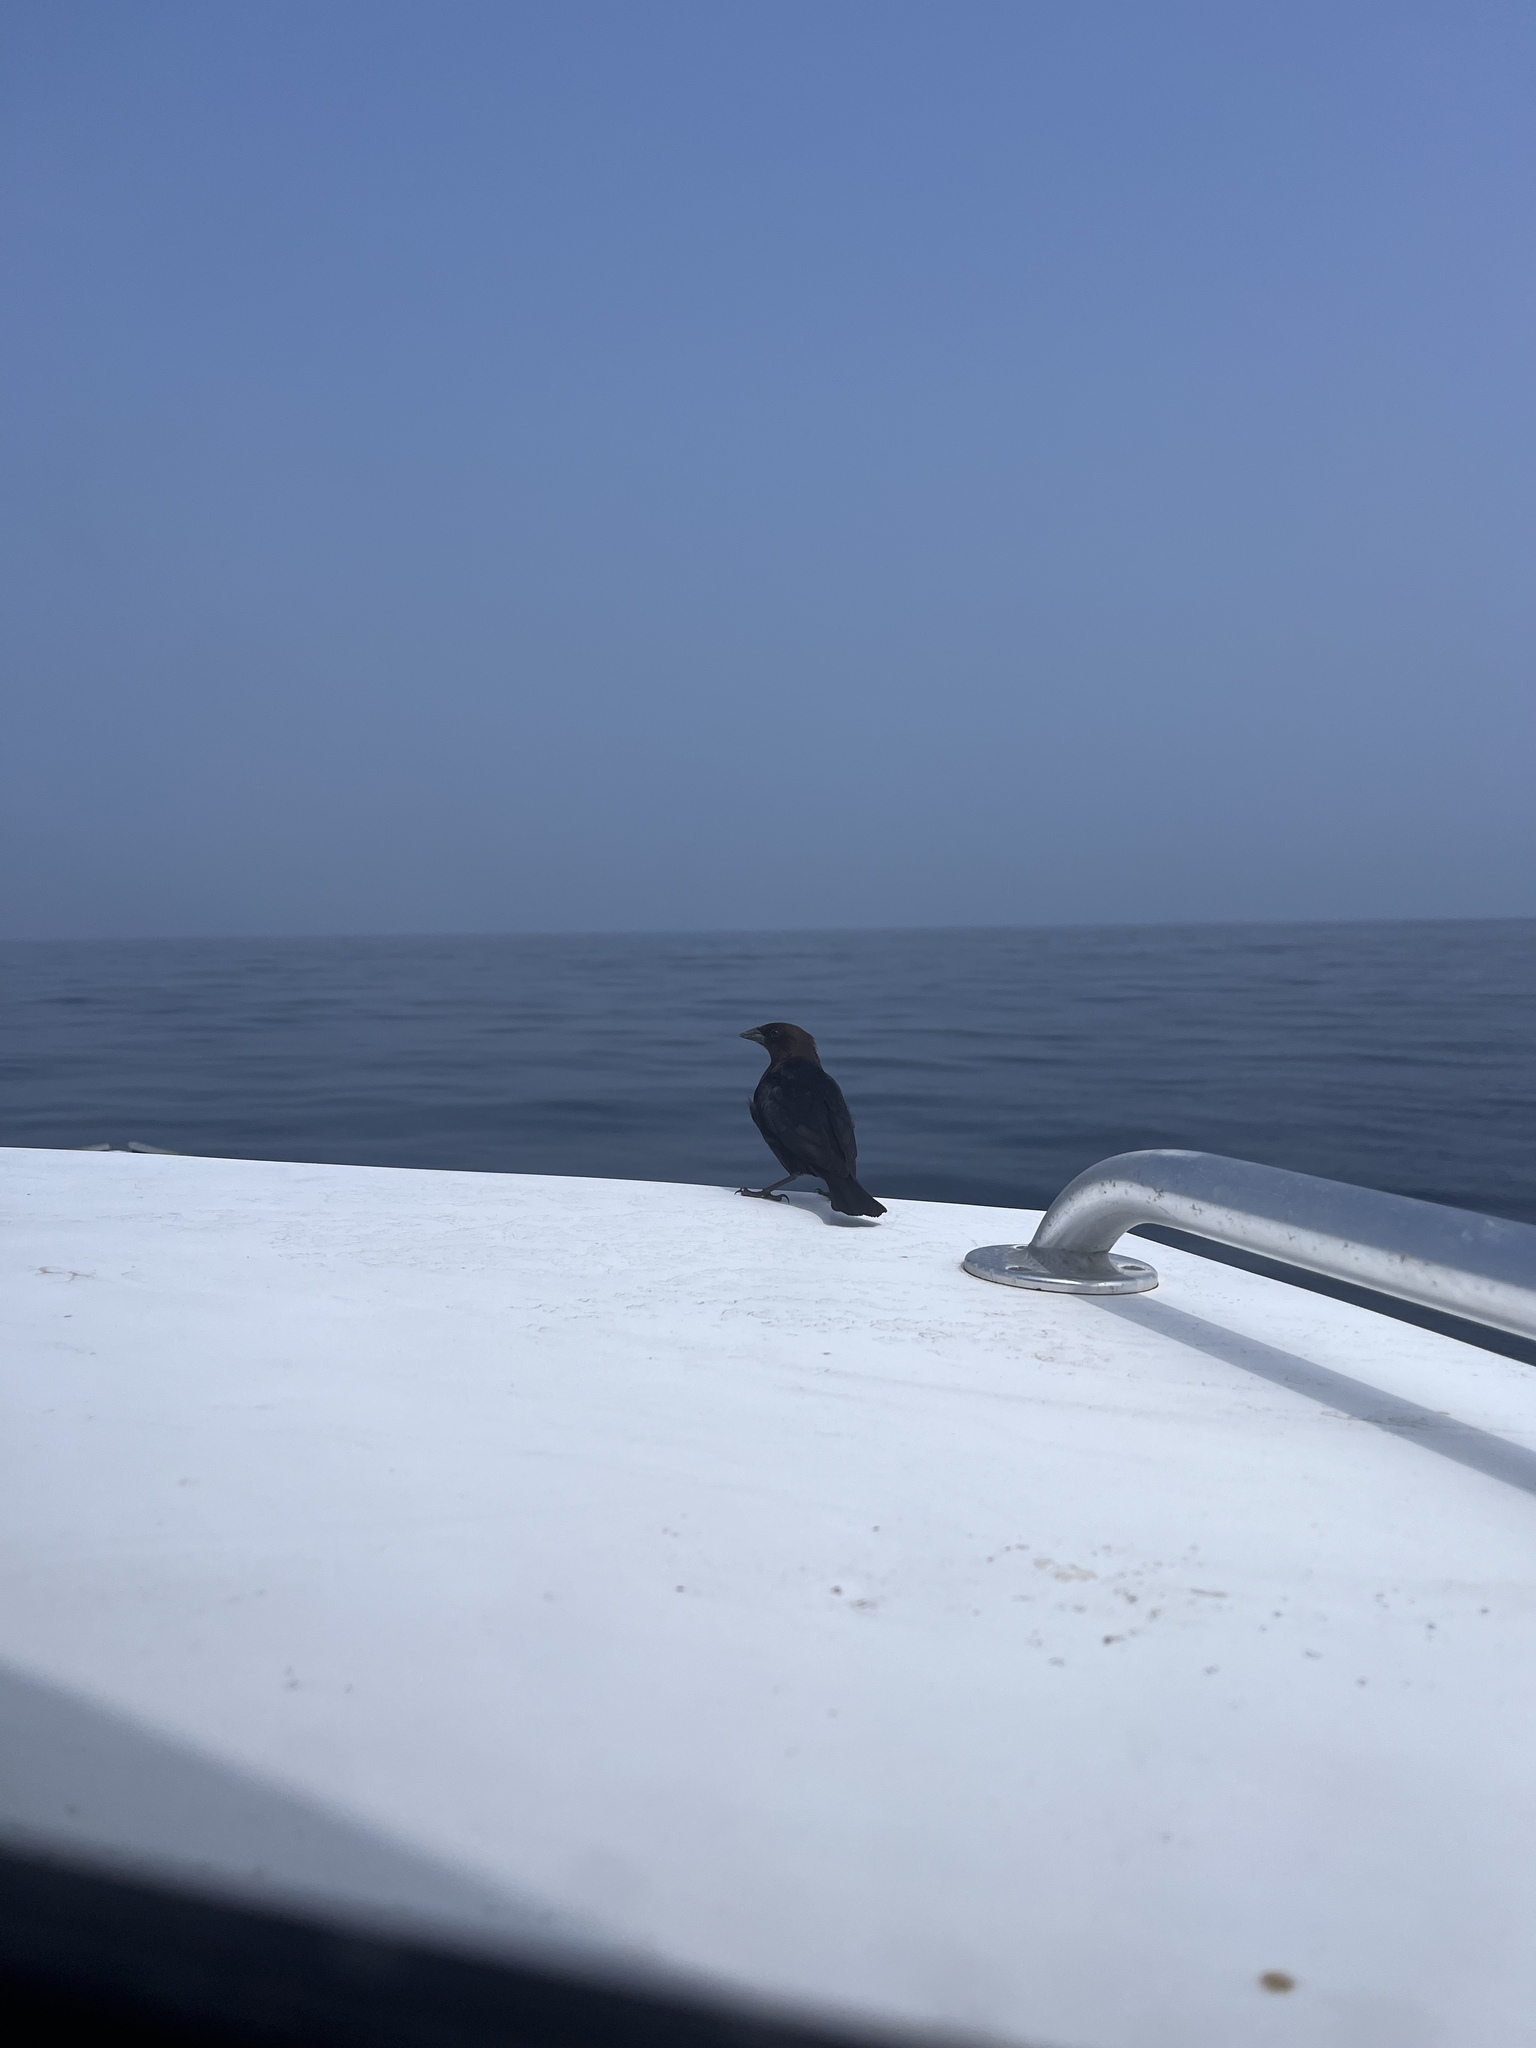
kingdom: Animalia
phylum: Chordata
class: Aves
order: Passeriformes
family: Icteridae
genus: Molothrus
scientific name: Molothrus ater
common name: Brown-headed cowbird
